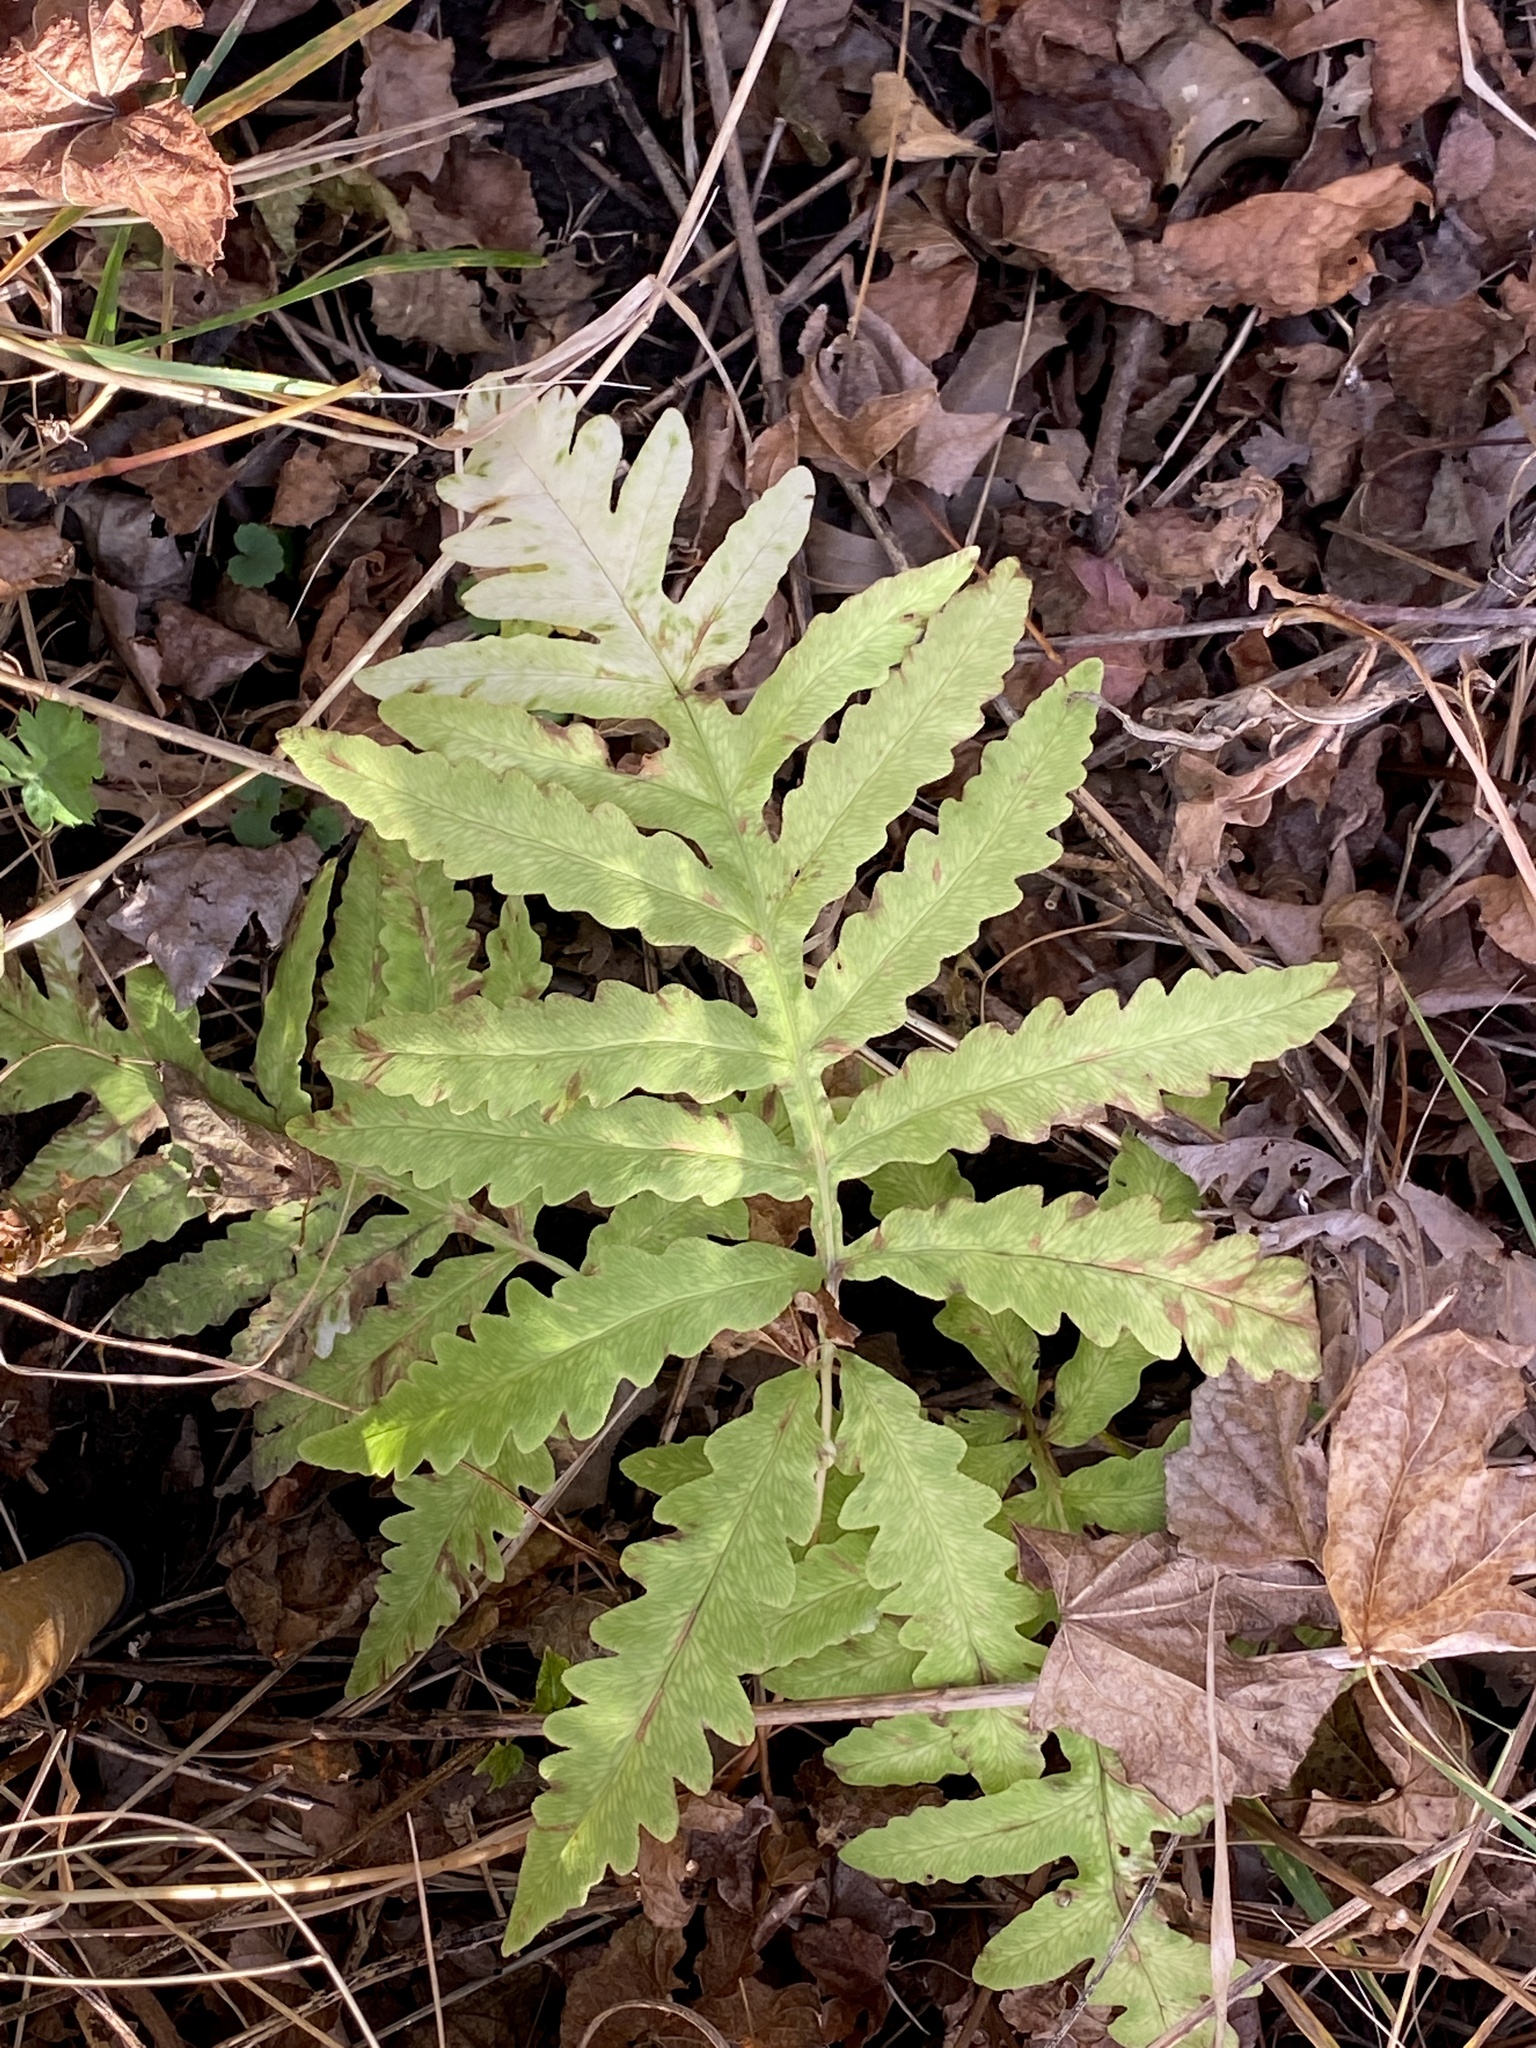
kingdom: Plantae
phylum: Tracheophyta
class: Polypodiopsida
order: Polypodiales
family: Onocleaceae
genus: Onoclea
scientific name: Onoclea sensibilis
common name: Sensitive fern
